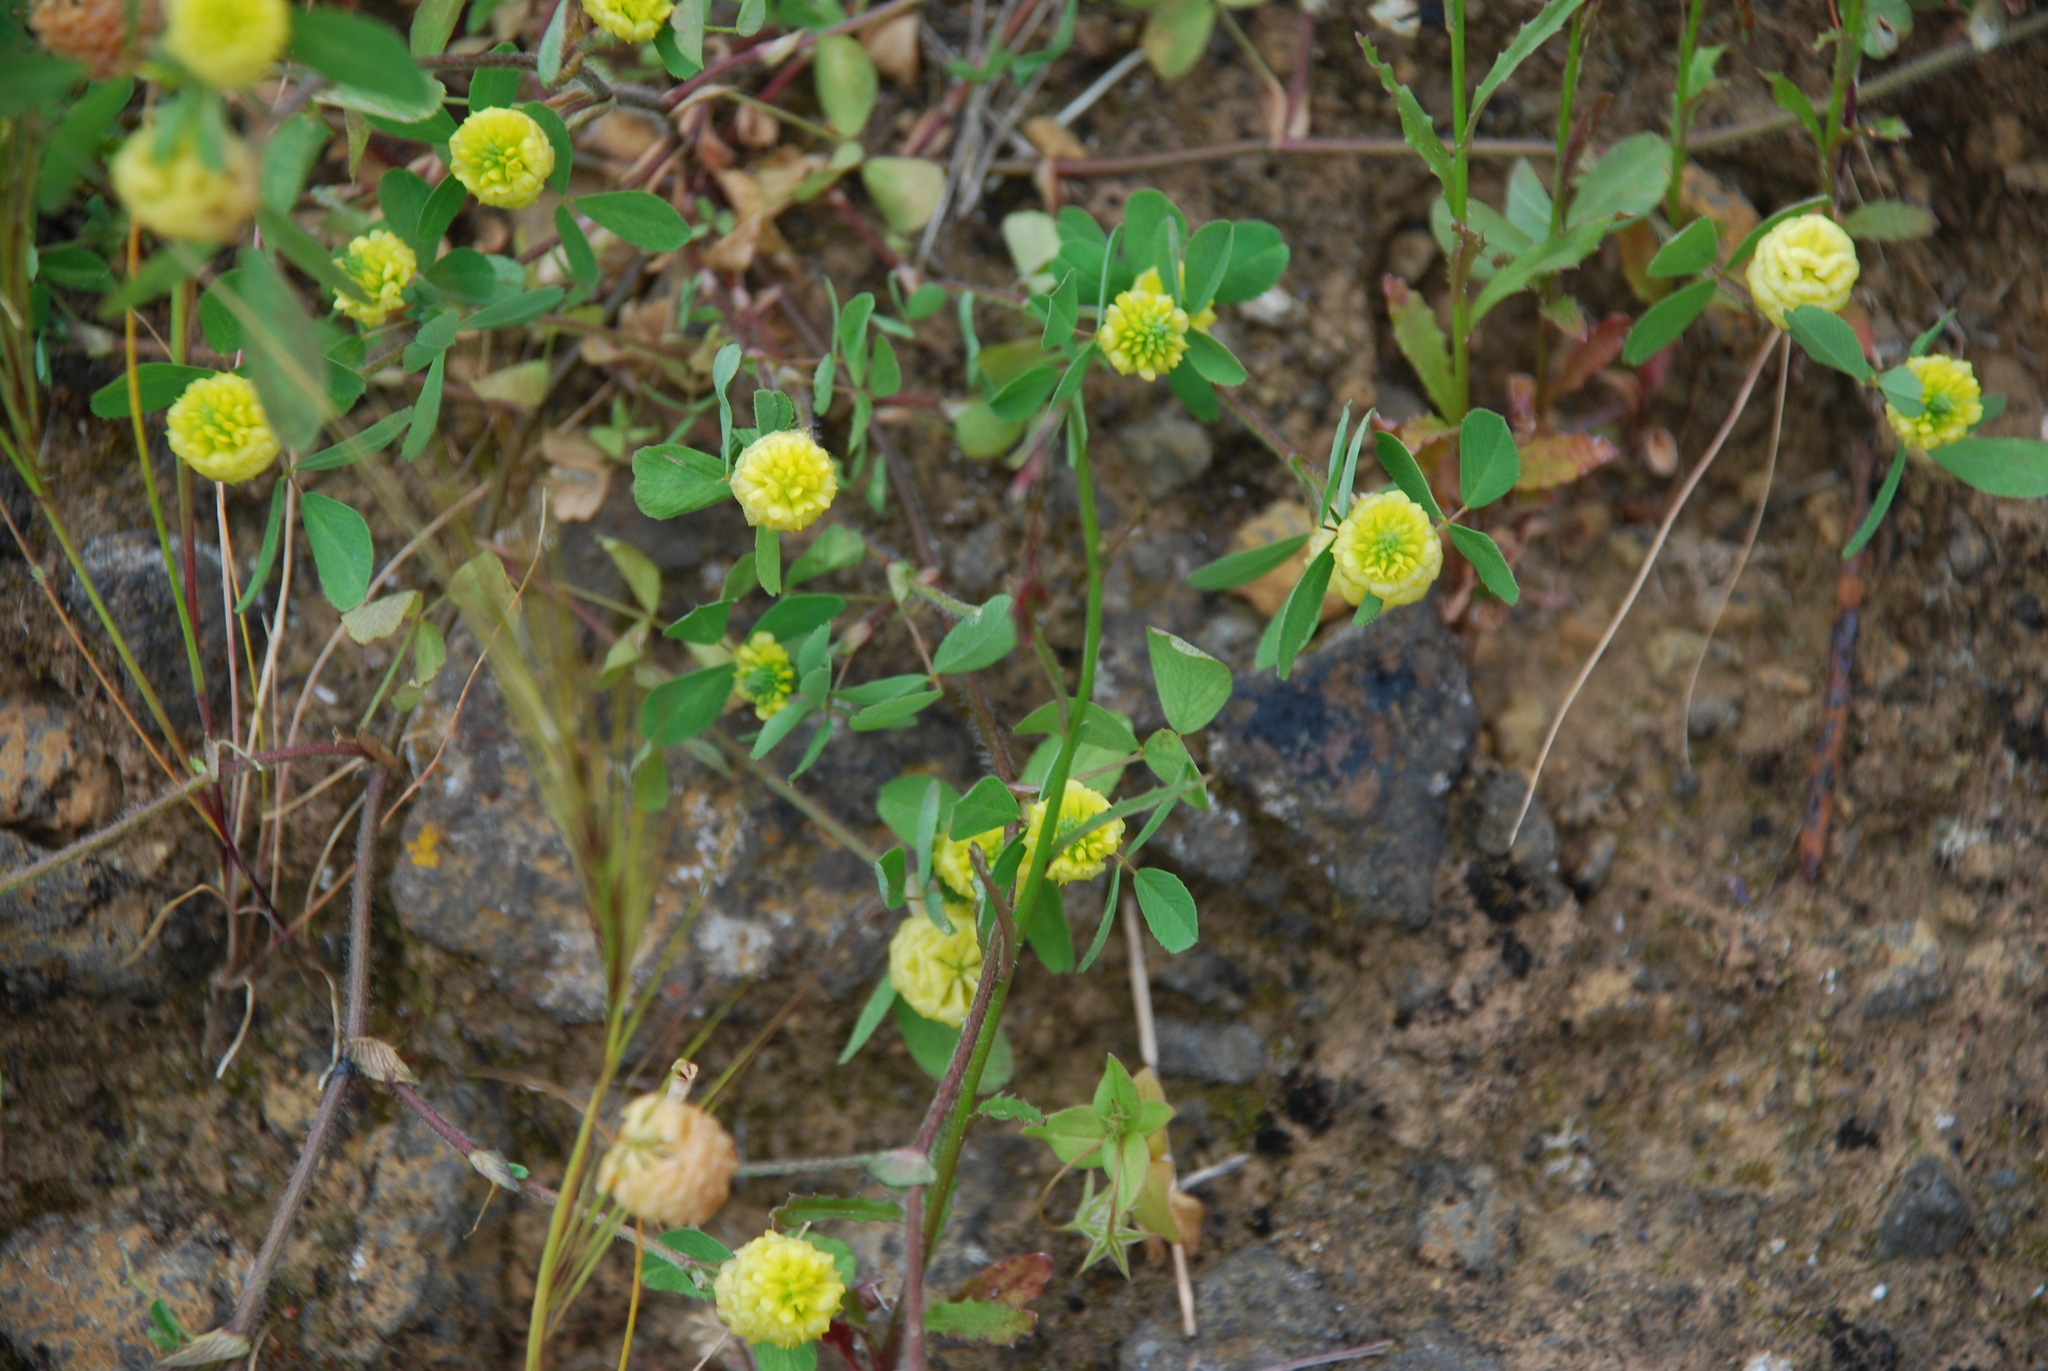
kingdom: Plantae
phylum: Tracheophyta
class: Magnoliopsida
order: Fabales
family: Fabaceae
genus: Trifolium
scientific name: Trifolium campestre
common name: Field clover
